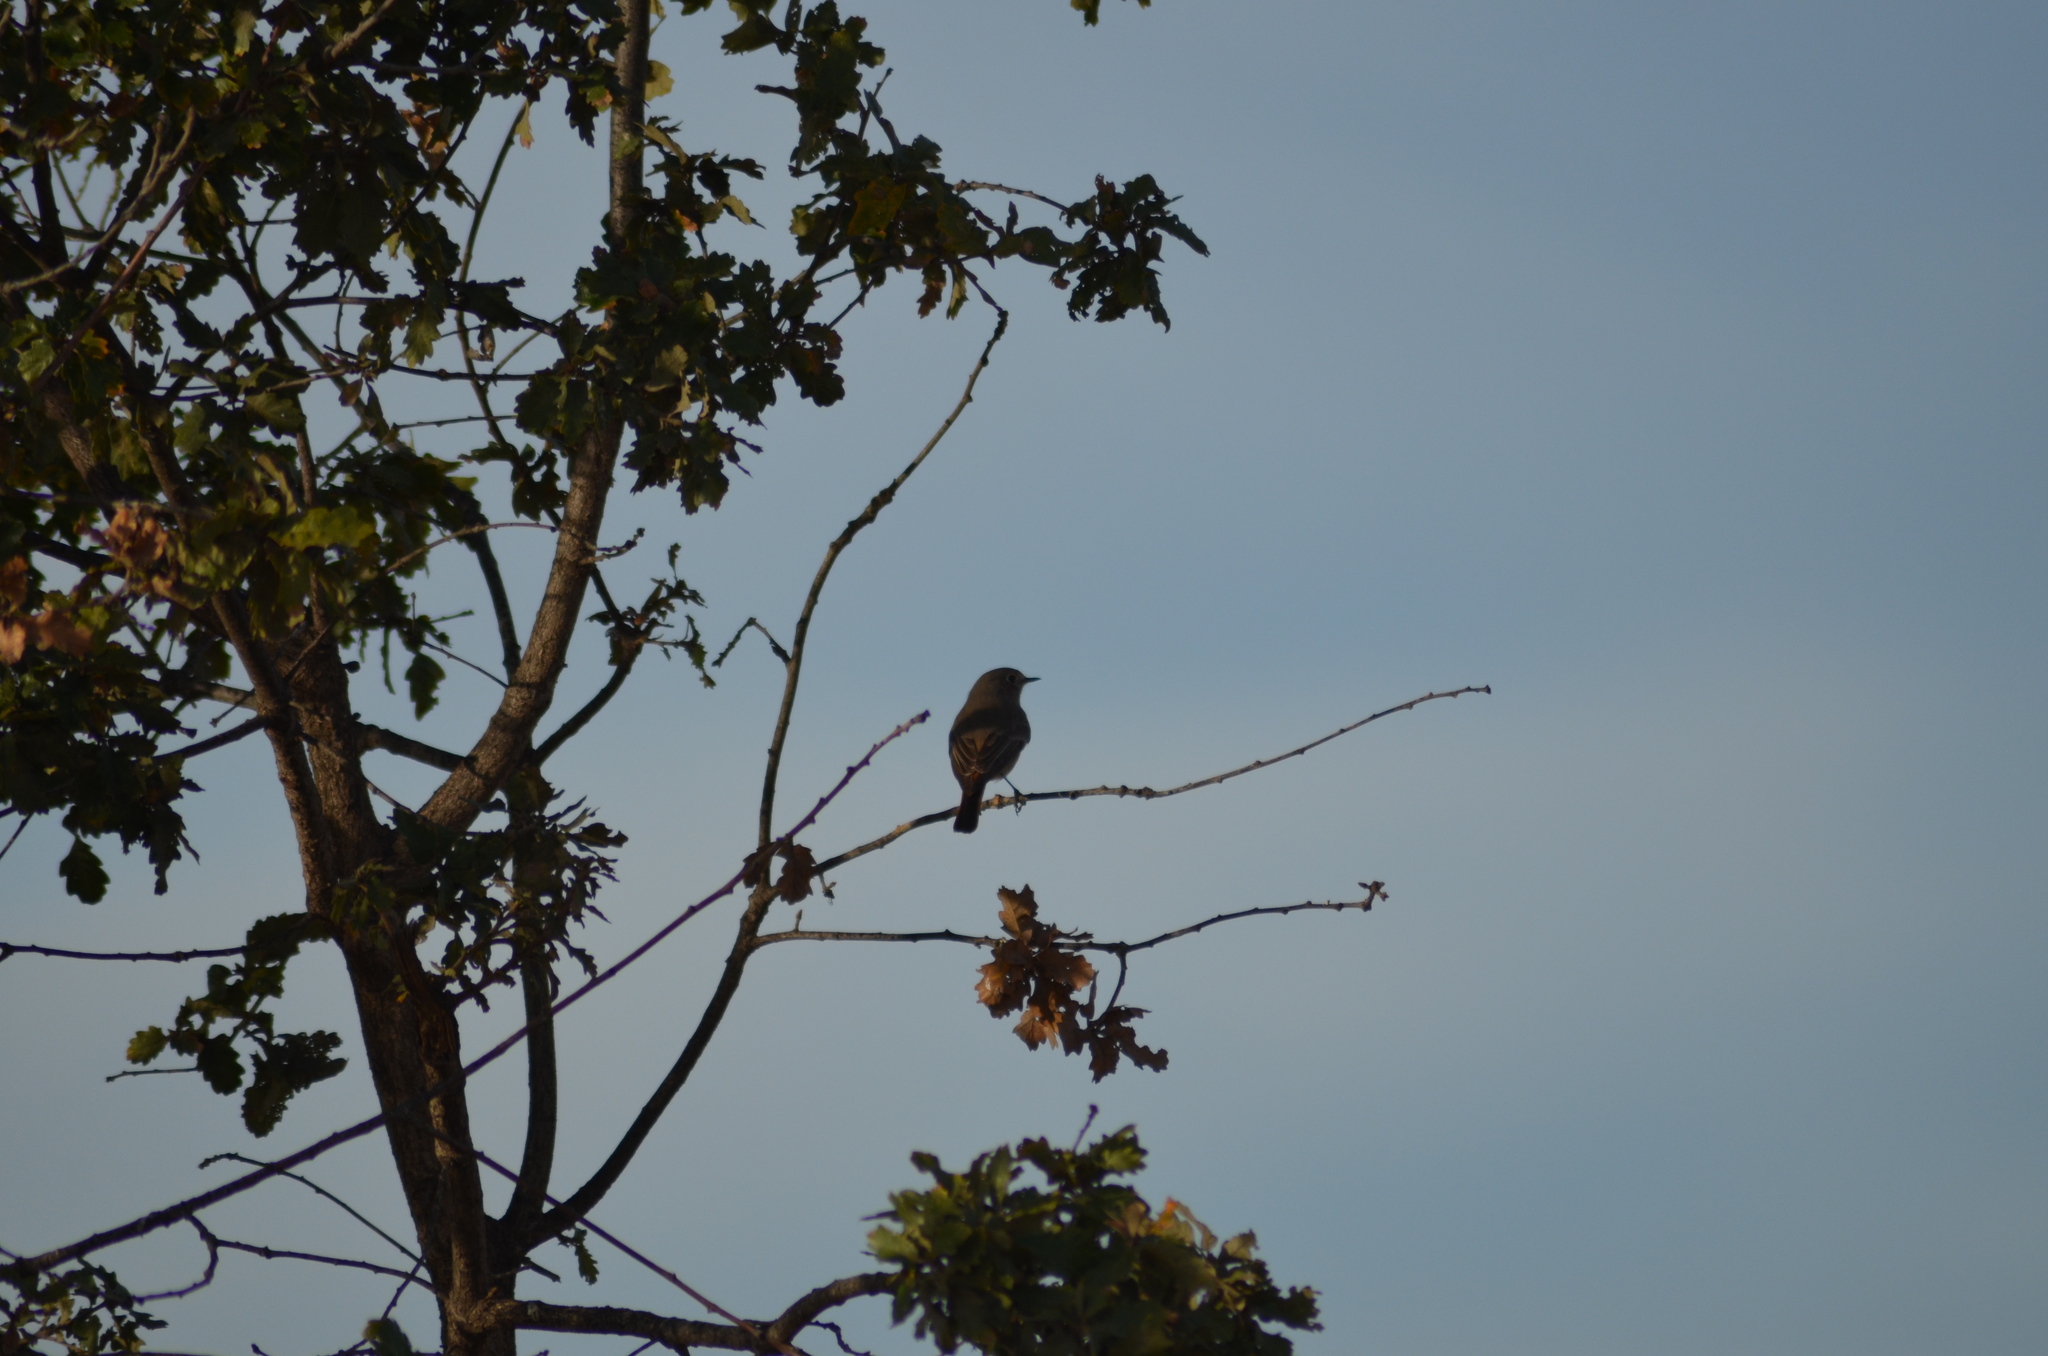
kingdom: Animalia
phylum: Chordata
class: Aves
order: Passeriformes
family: Muscicapidae
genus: Phoenicurus
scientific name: Phoenicurus ochruros
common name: Black redstart
